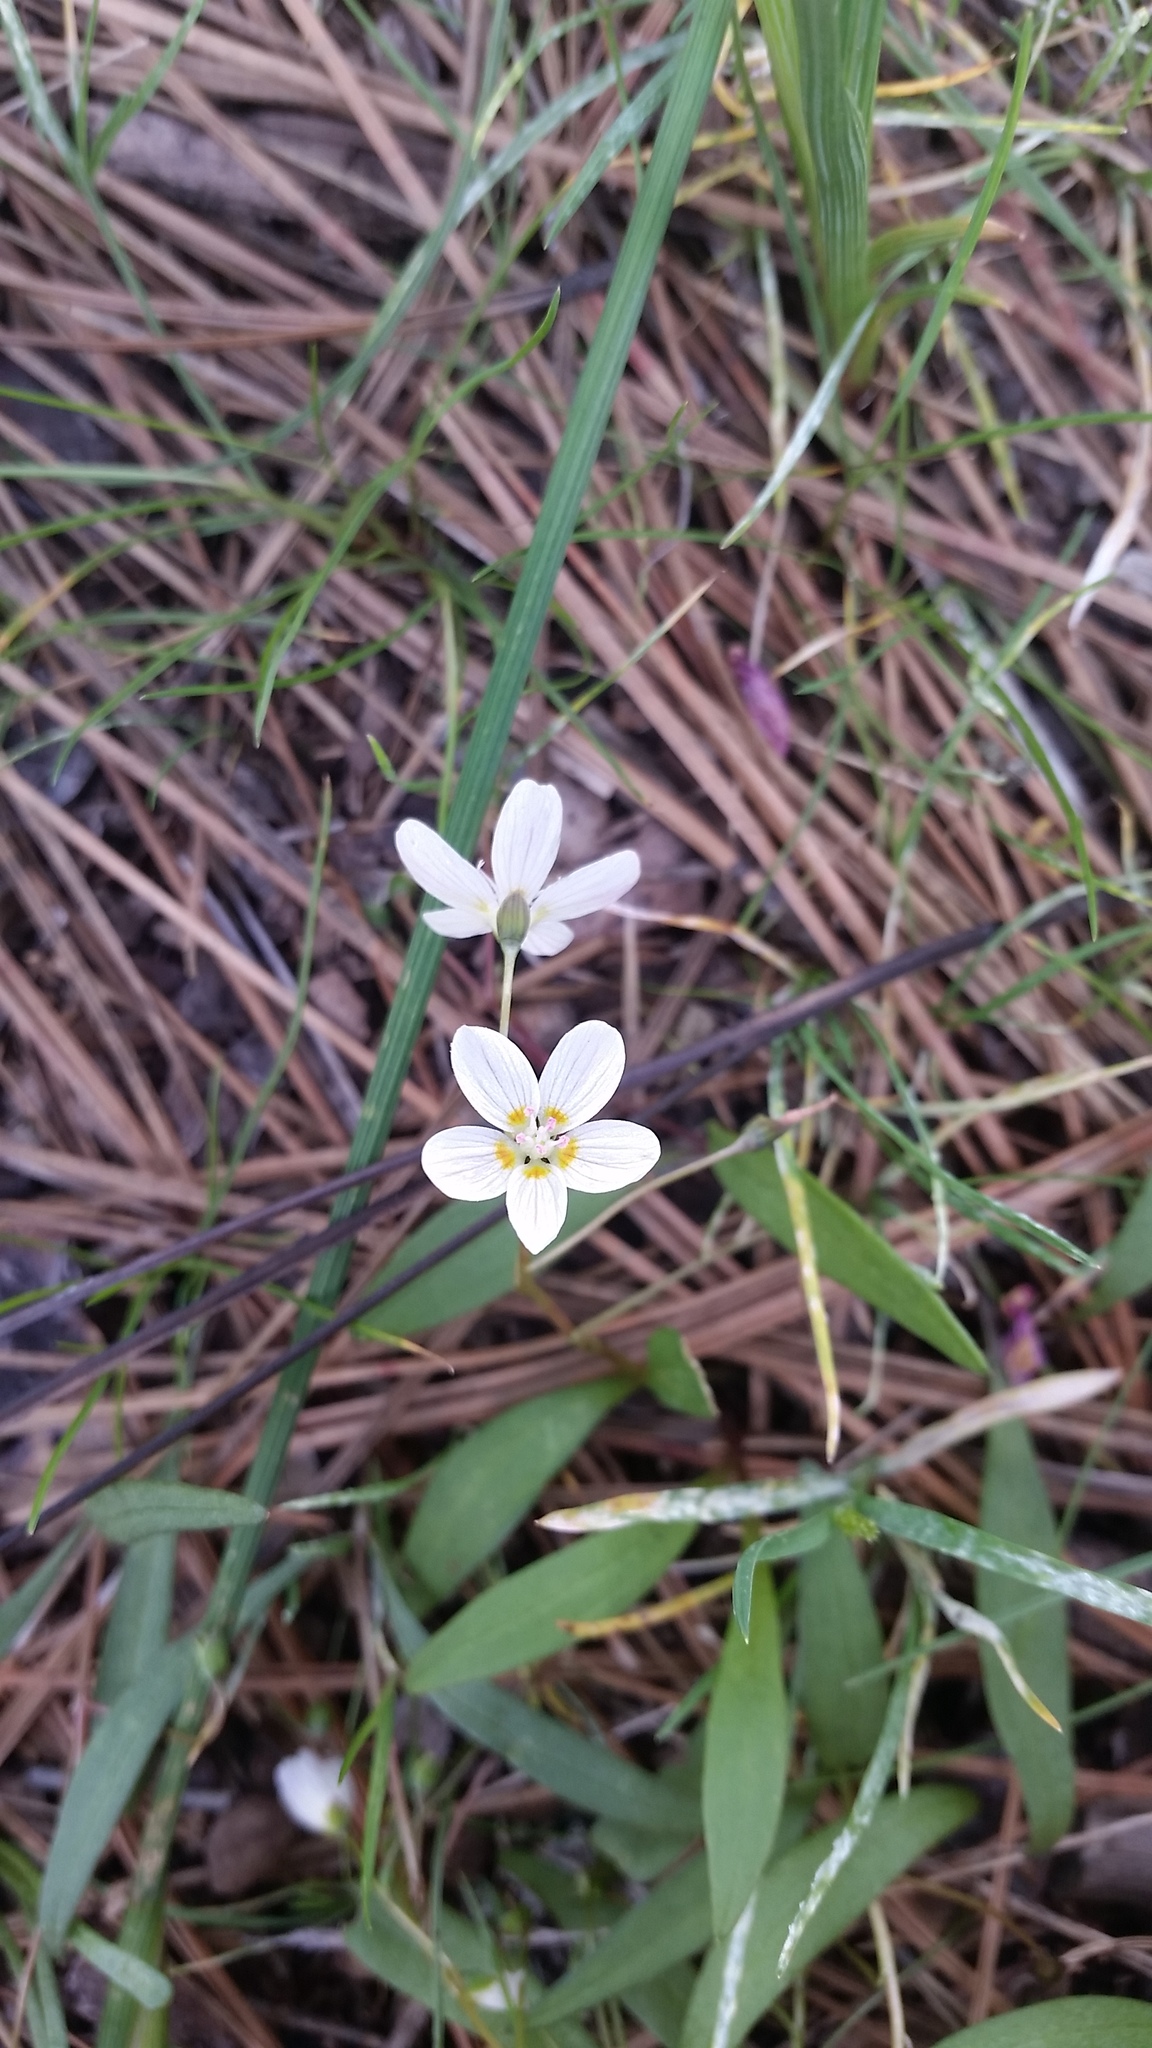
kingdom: Plantae
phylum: Tracheophyta
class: Magnoliopsida
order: Caryophyllales
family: Montiaceae
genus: Claytonia
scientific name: Claytonia lanceolata
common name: Western spring-beauty
